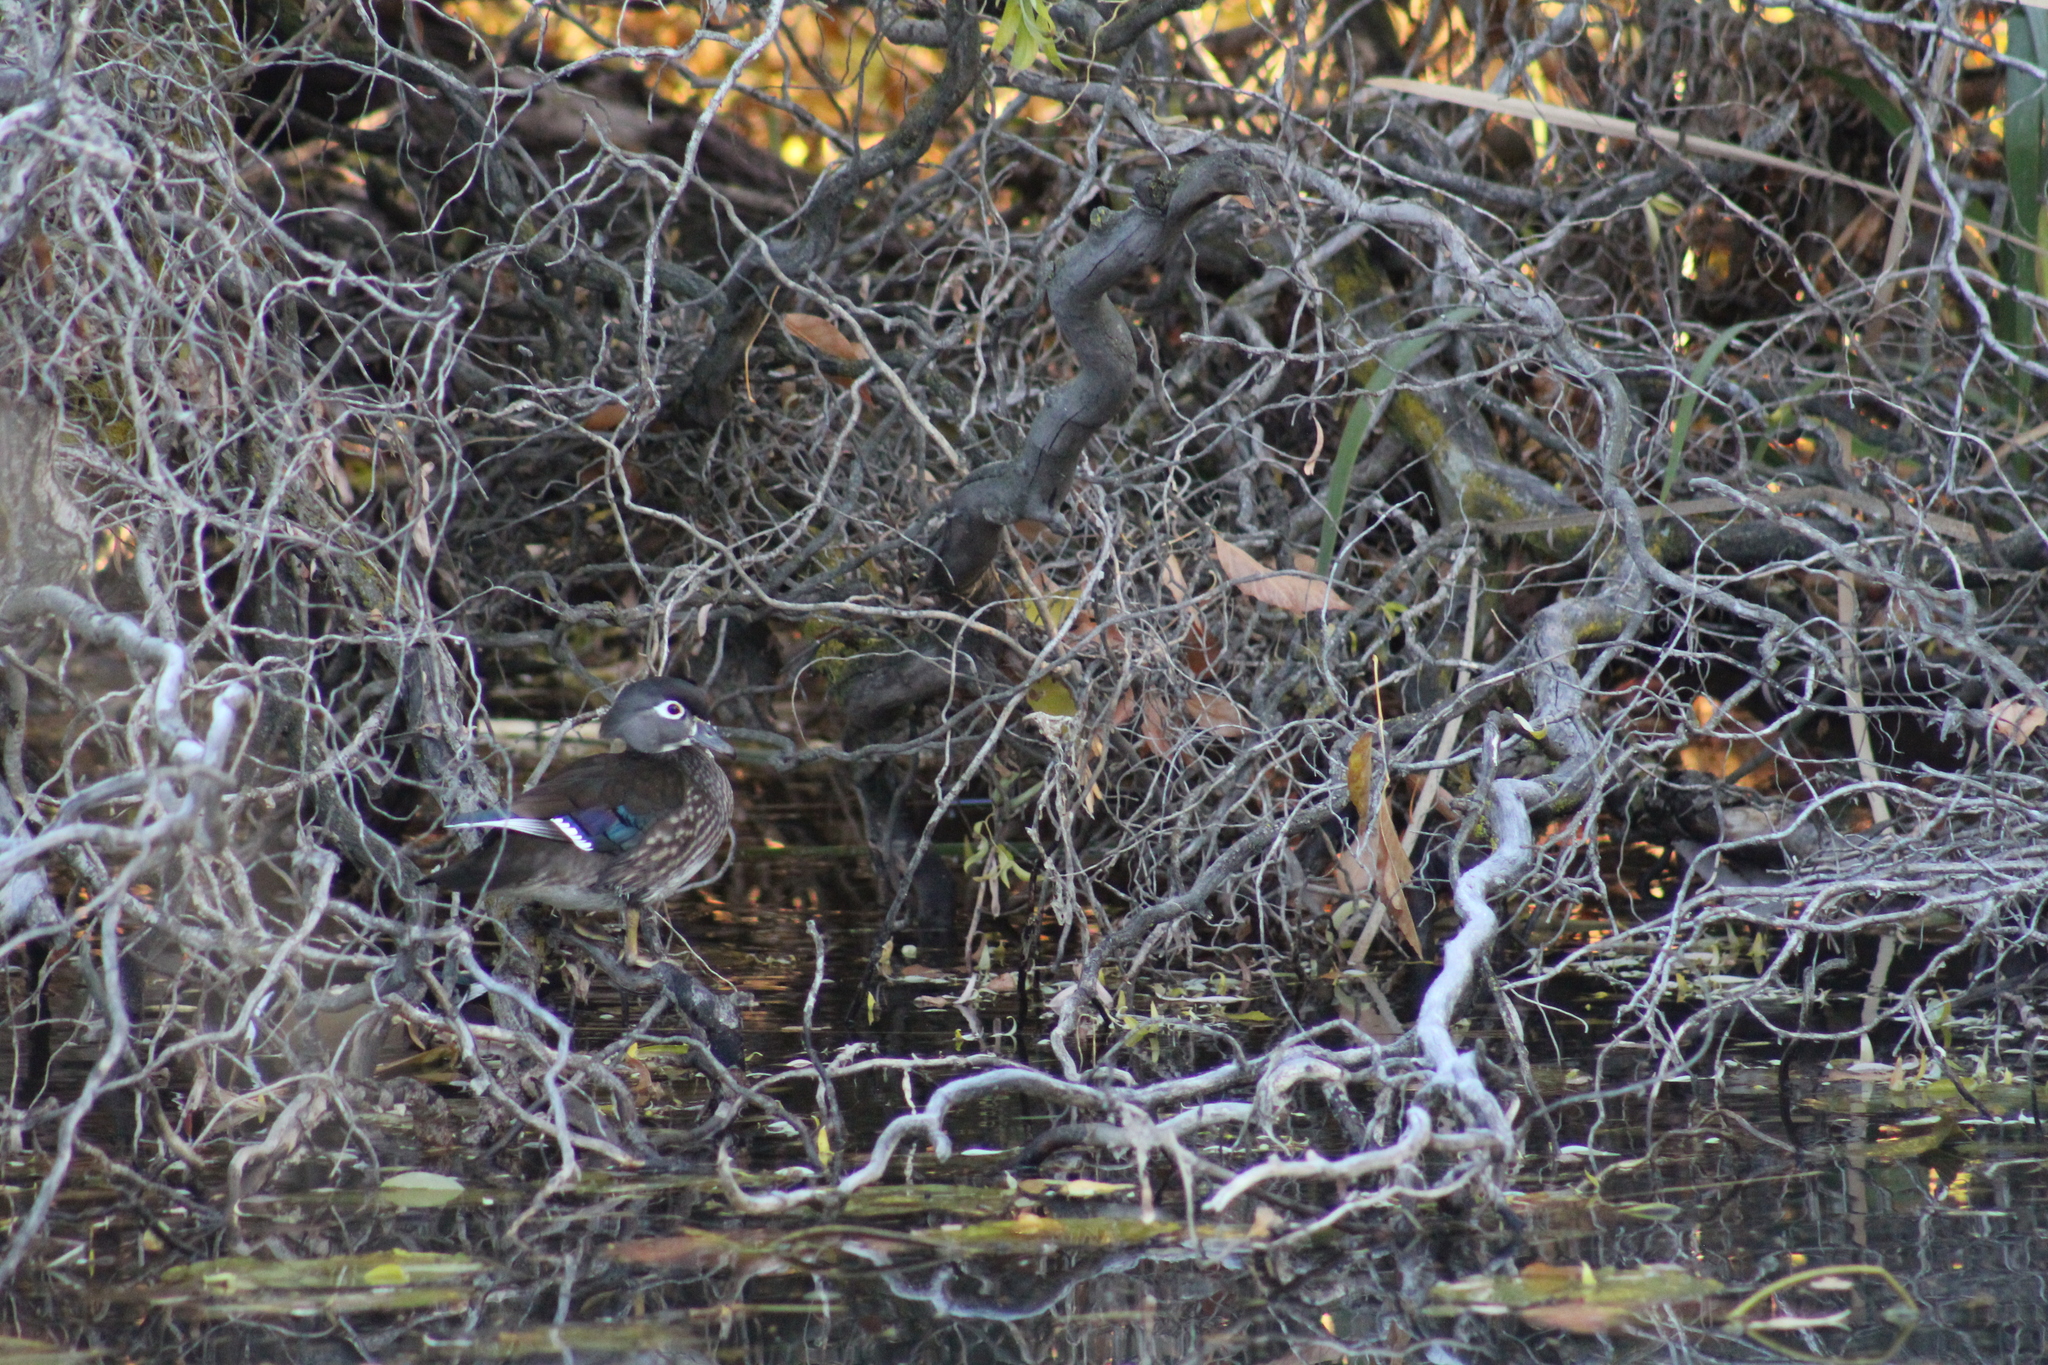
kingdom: Animalia
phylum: Chordata
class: Aves
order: Anseriformes
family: Anatidae
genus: Aix
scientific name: Aix sponsa
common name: Wood duck
